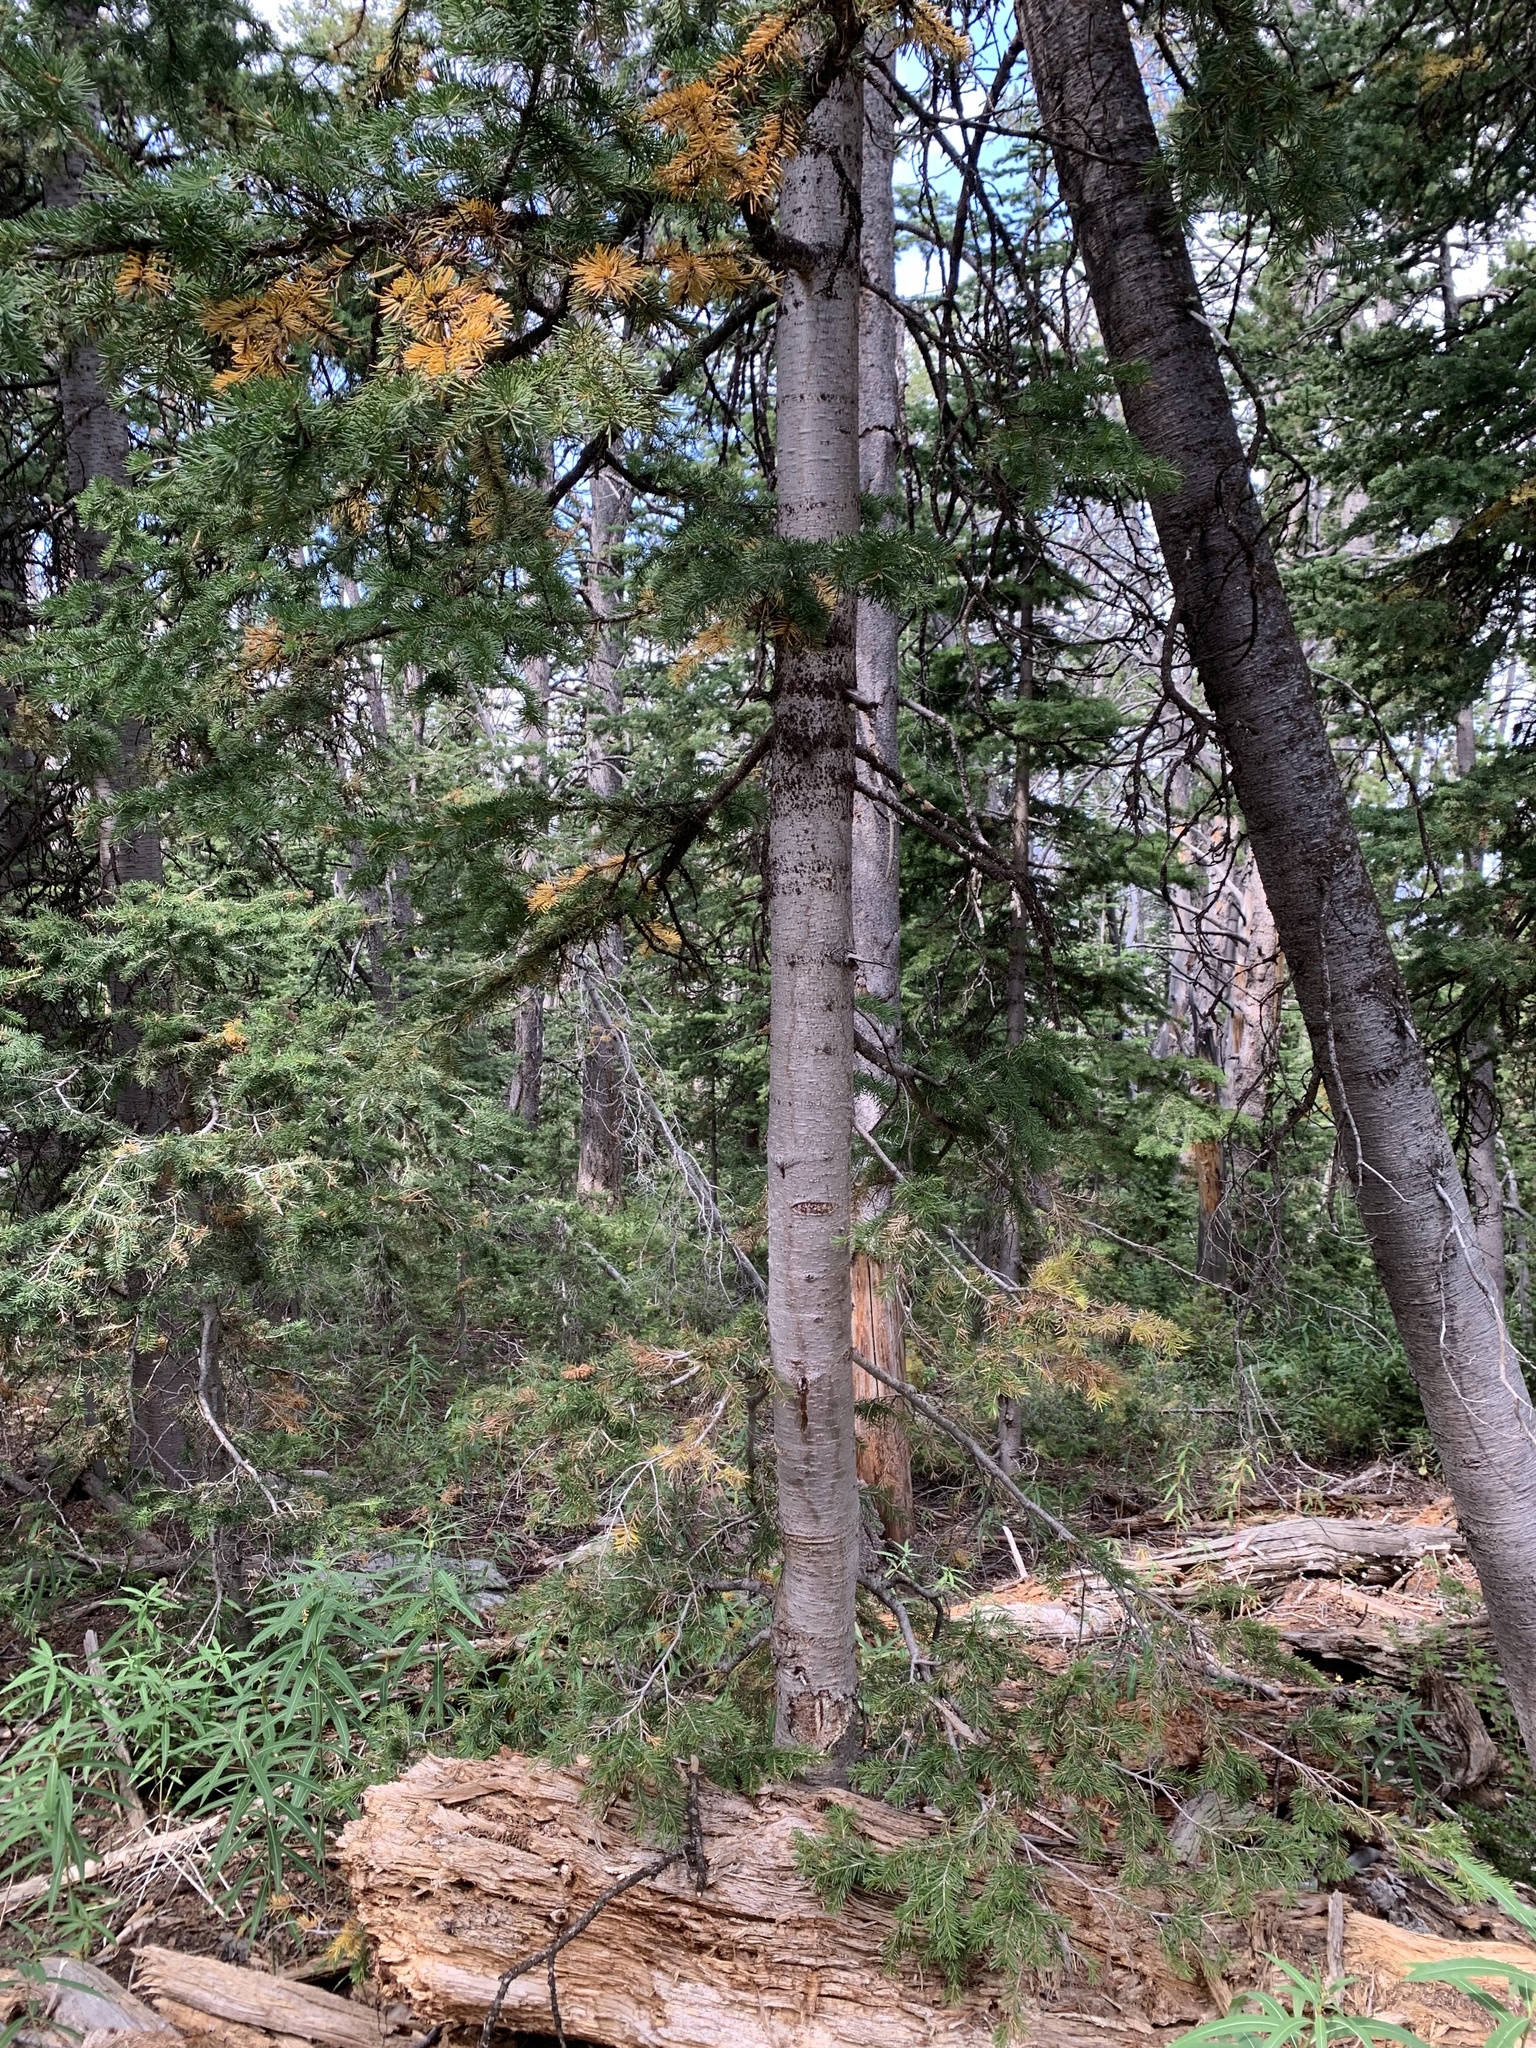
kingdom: Plantae
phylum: Tracheophyta
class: Pinopsida
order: Pinales
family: Pinaceae
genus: Abies
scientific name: Abies lasiocarpa
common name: Subalpine fir
